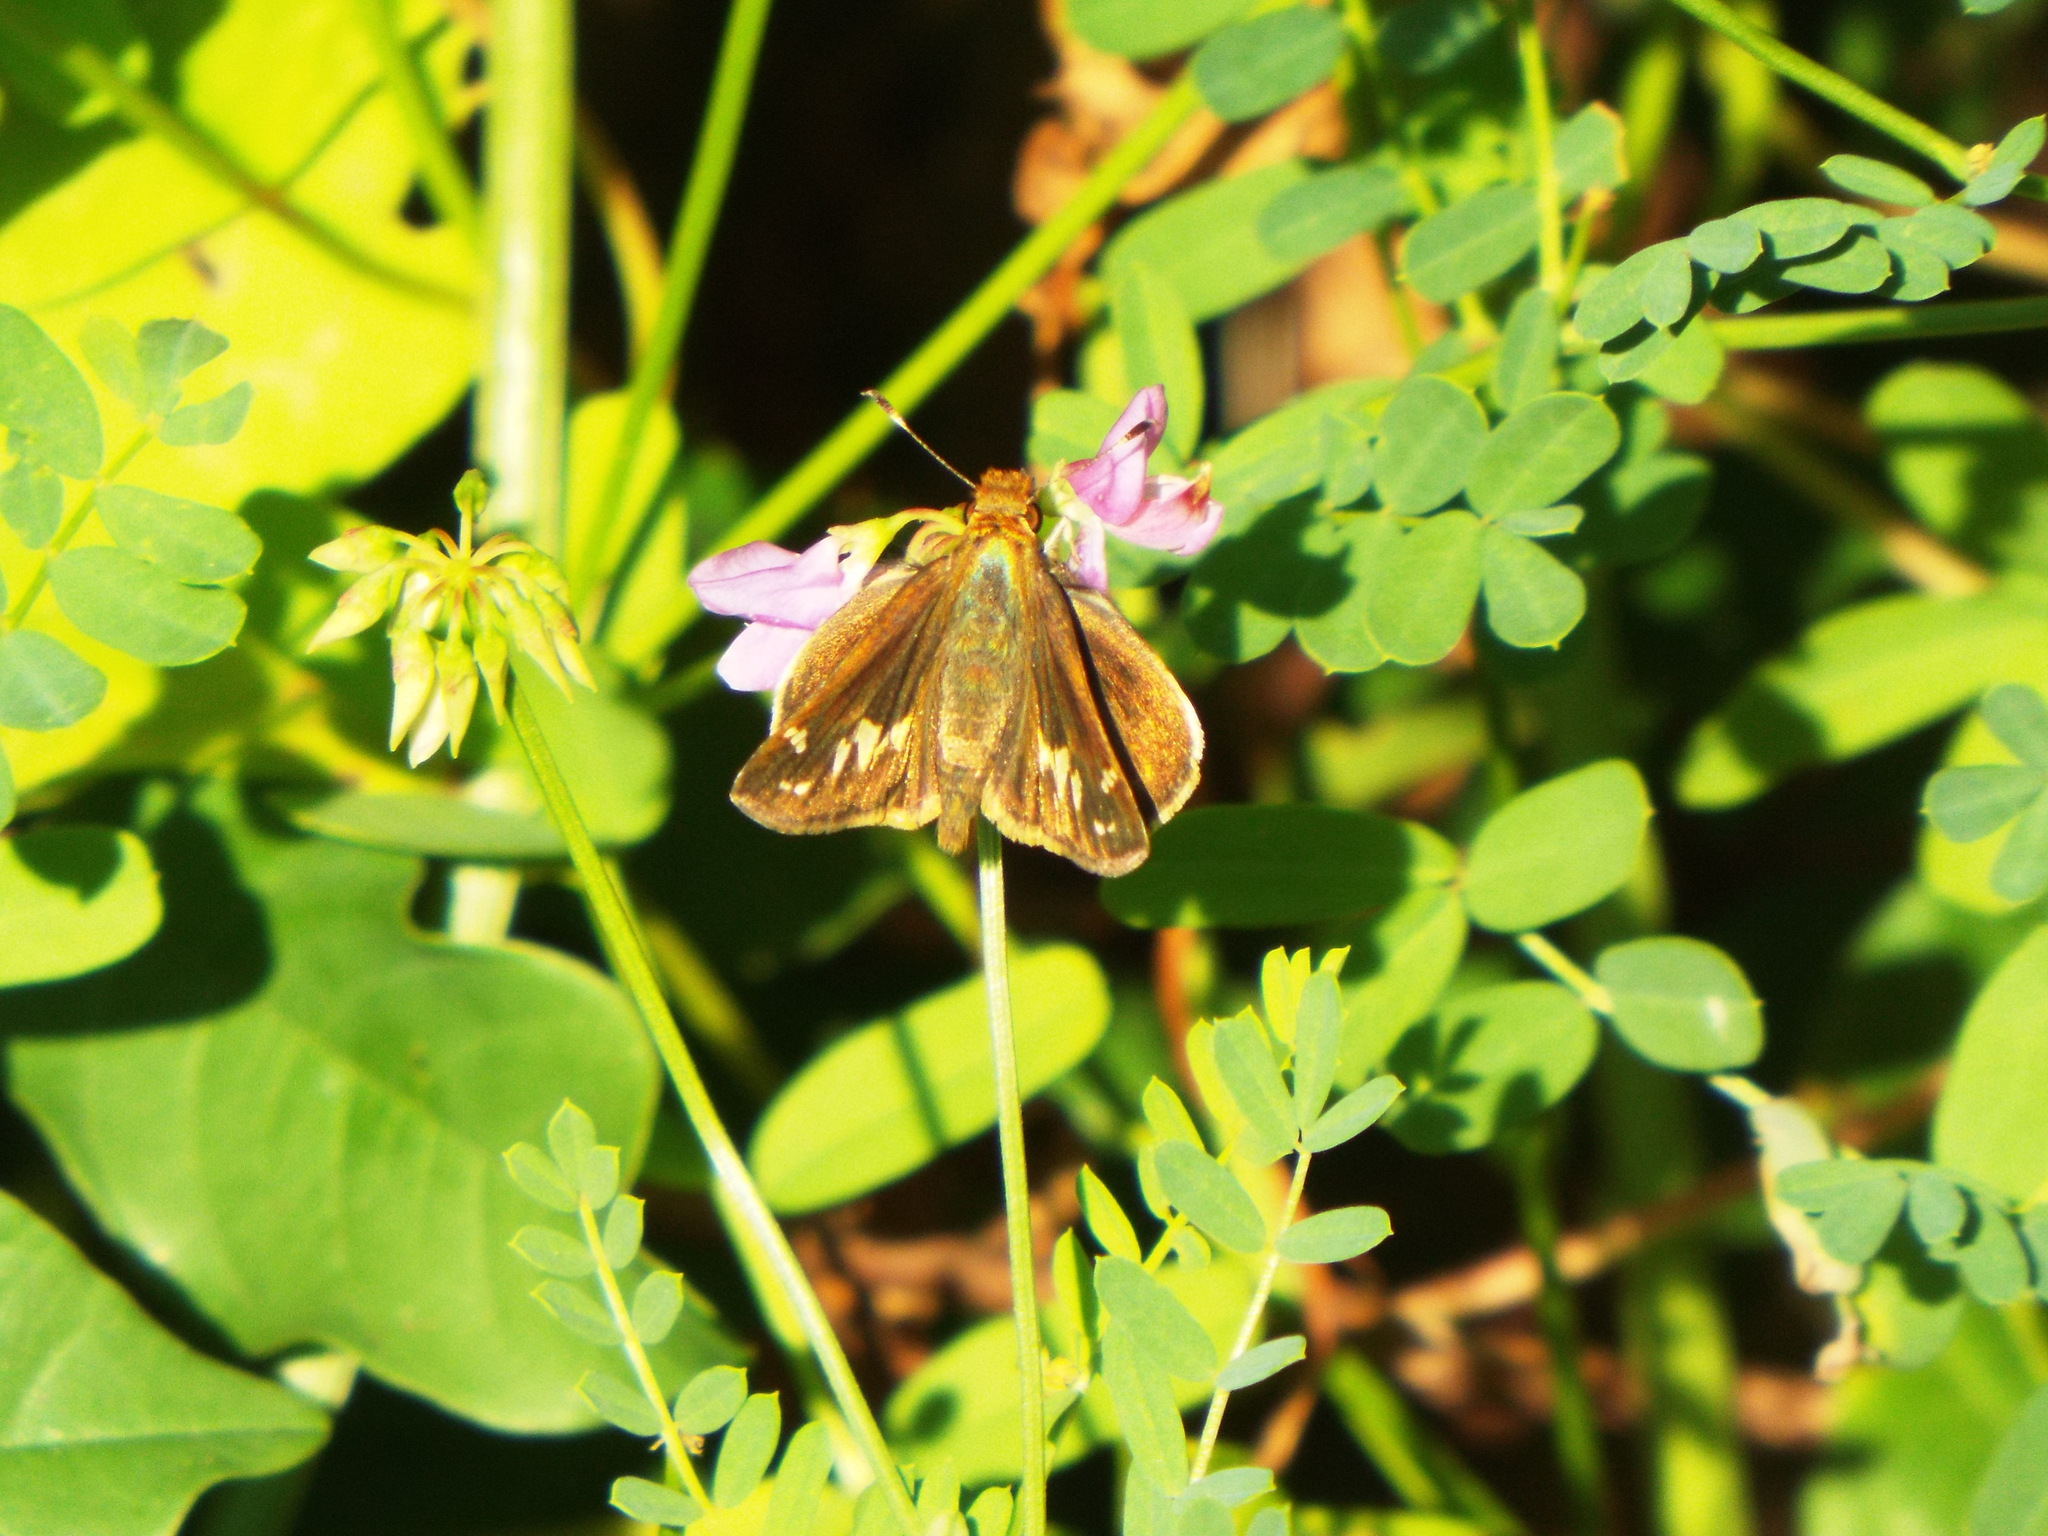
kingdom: Animalia
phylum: Arthropoda
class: Insecta
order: Lepidoptera
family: Hesperiidae
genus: Lon
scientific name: Lon zabulon
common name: Zabulon skipper
